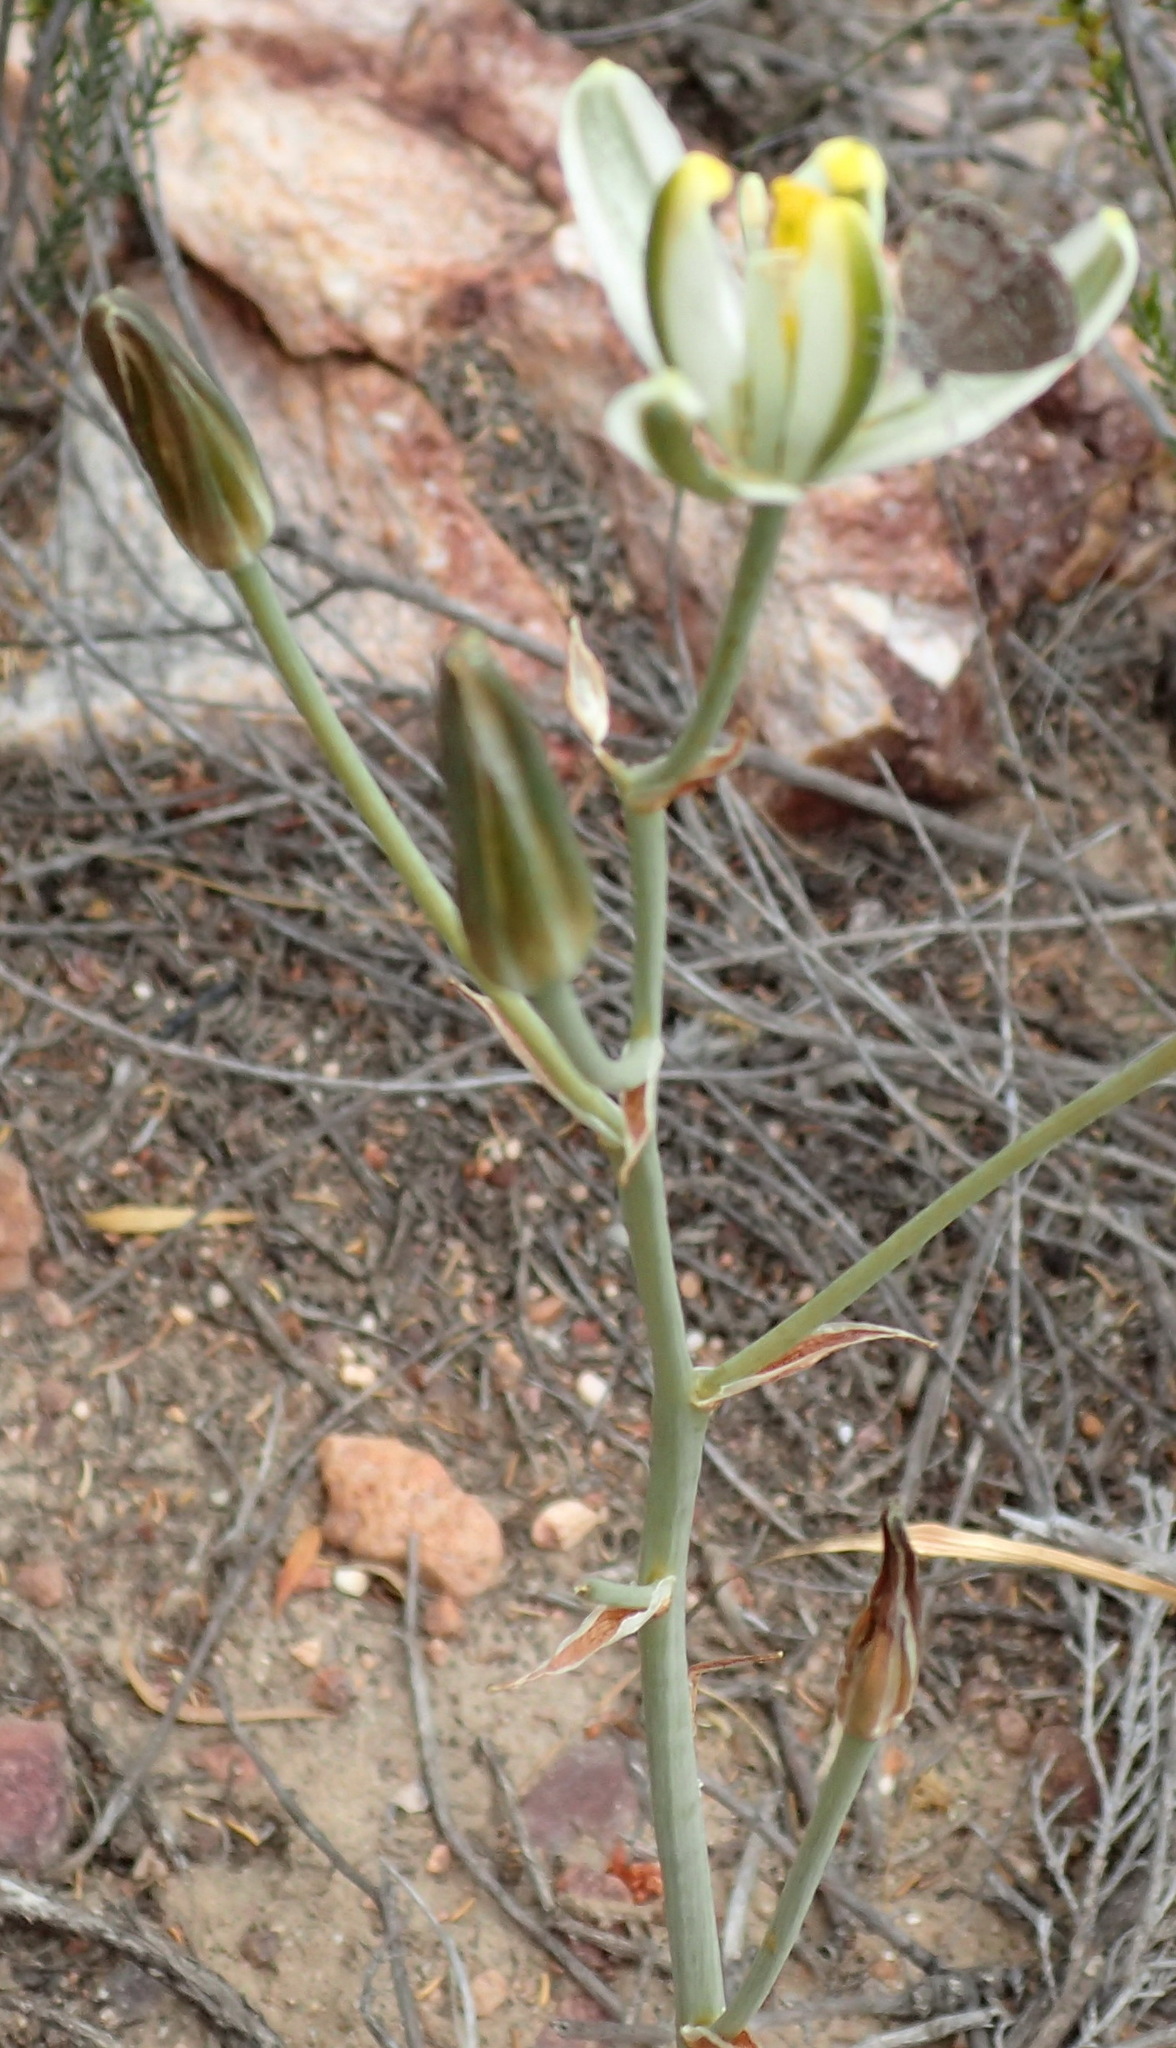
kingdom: Plantae
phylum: Tracheophyta
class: Liliopsida
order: Asparagales
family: Asparagaceae
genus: Albuca
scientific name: Albuca longipes
